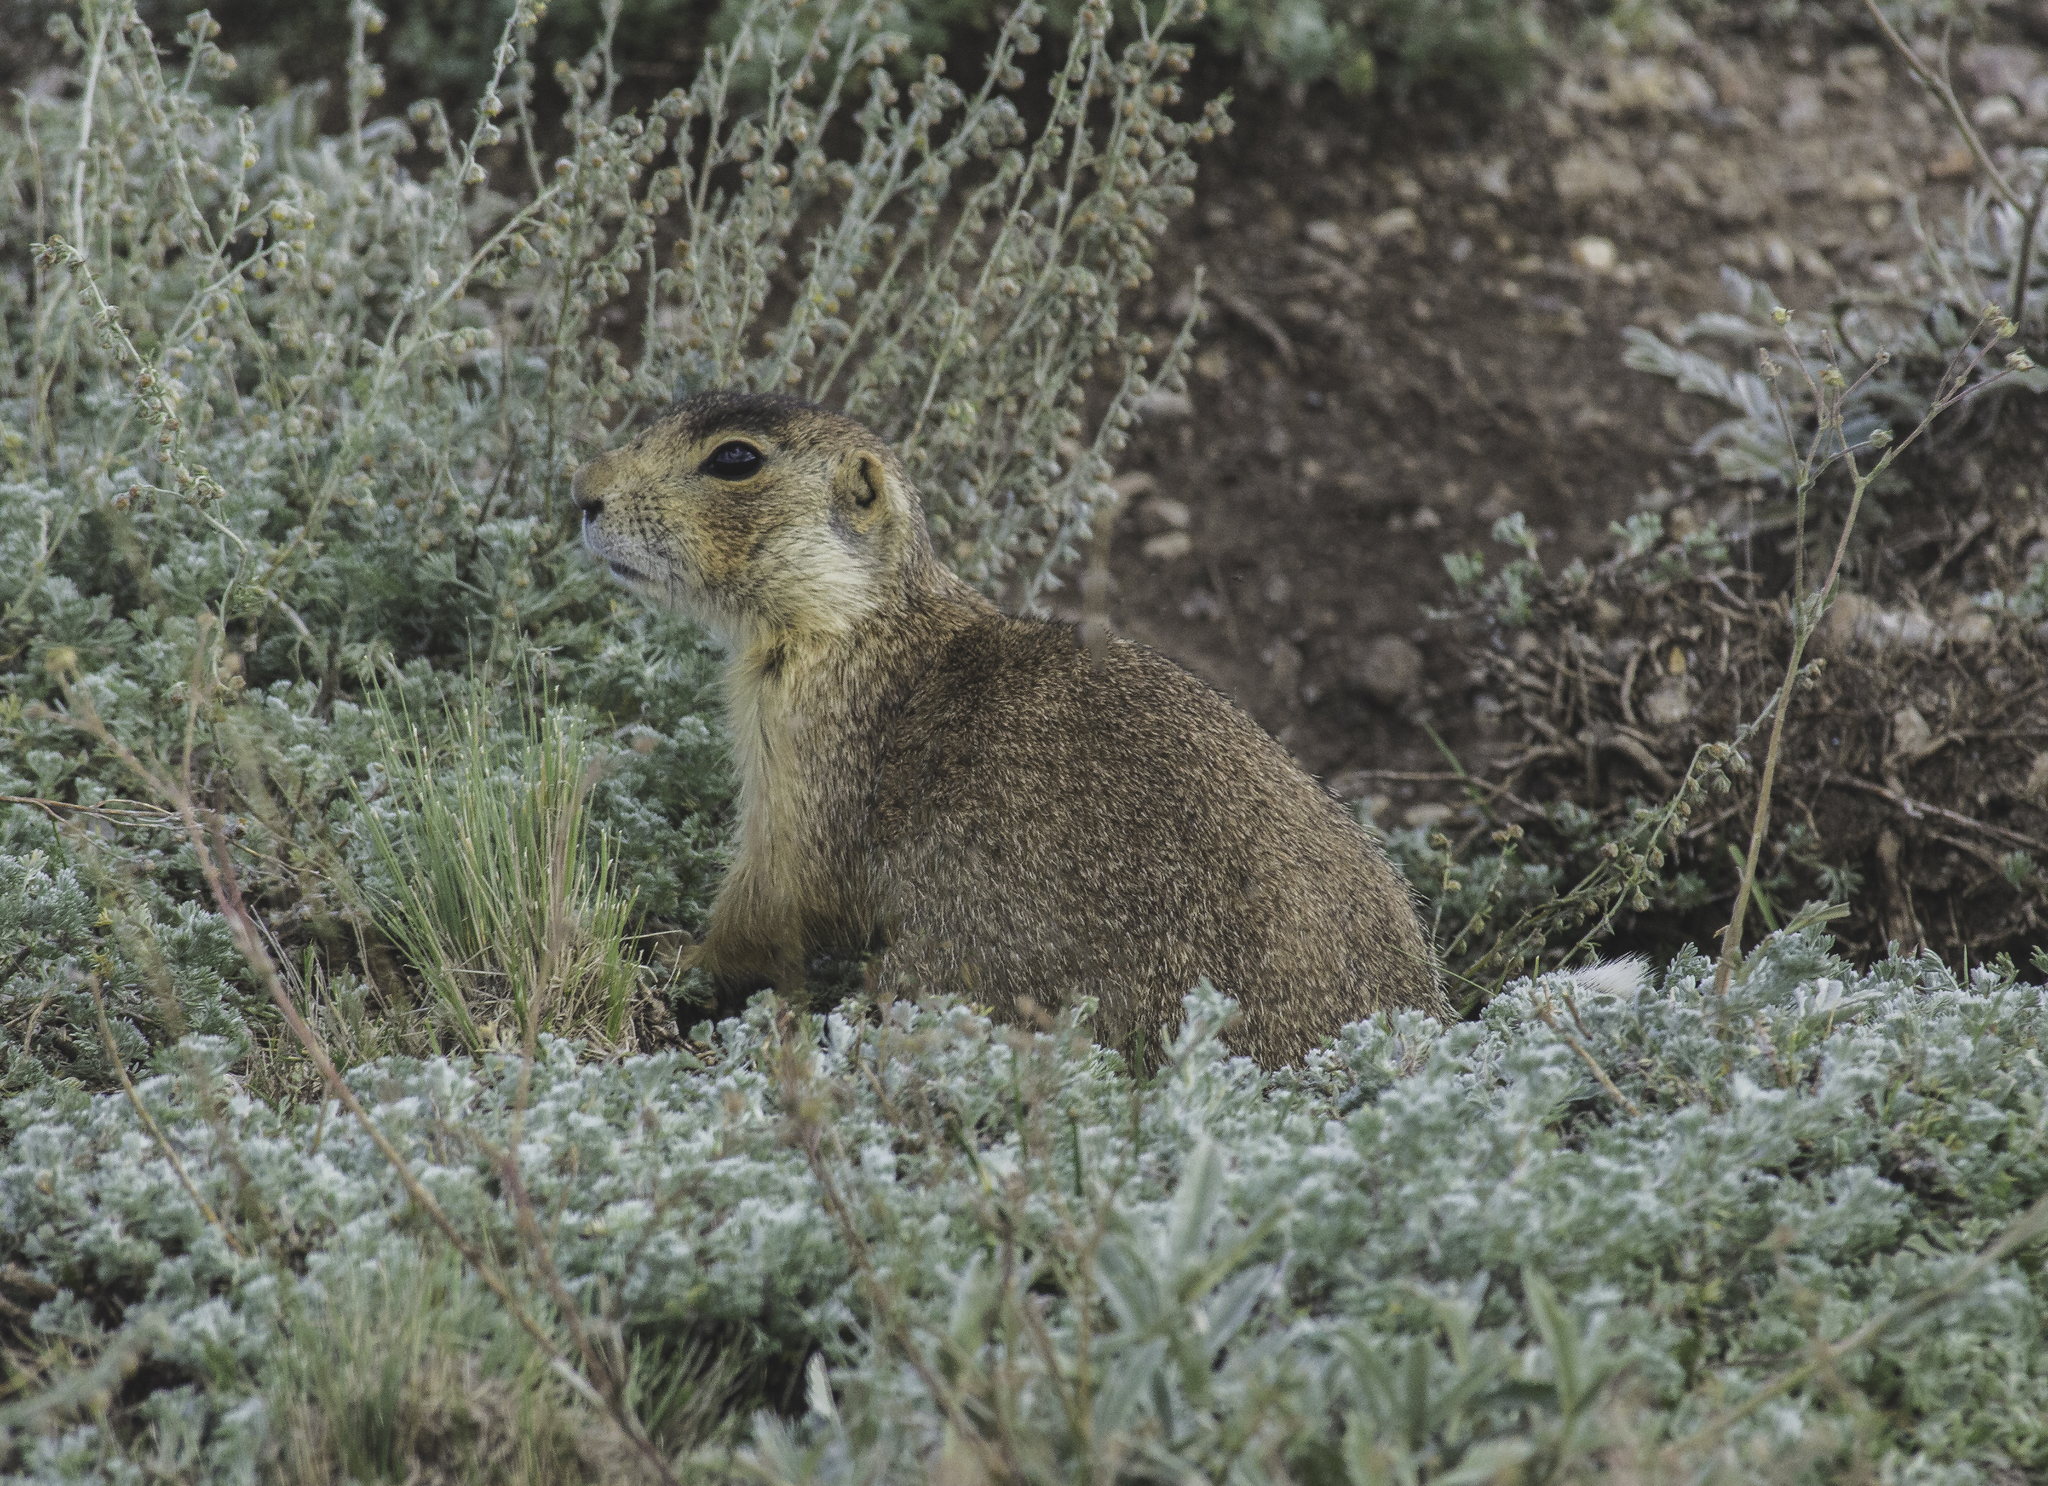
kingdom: Animalia
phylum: Chordata
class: Mammalia
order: Rodentia
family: Sciuridae
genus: Cynomys
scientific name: Cynomys gunnisoni
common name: Gunnison's prairie dog
